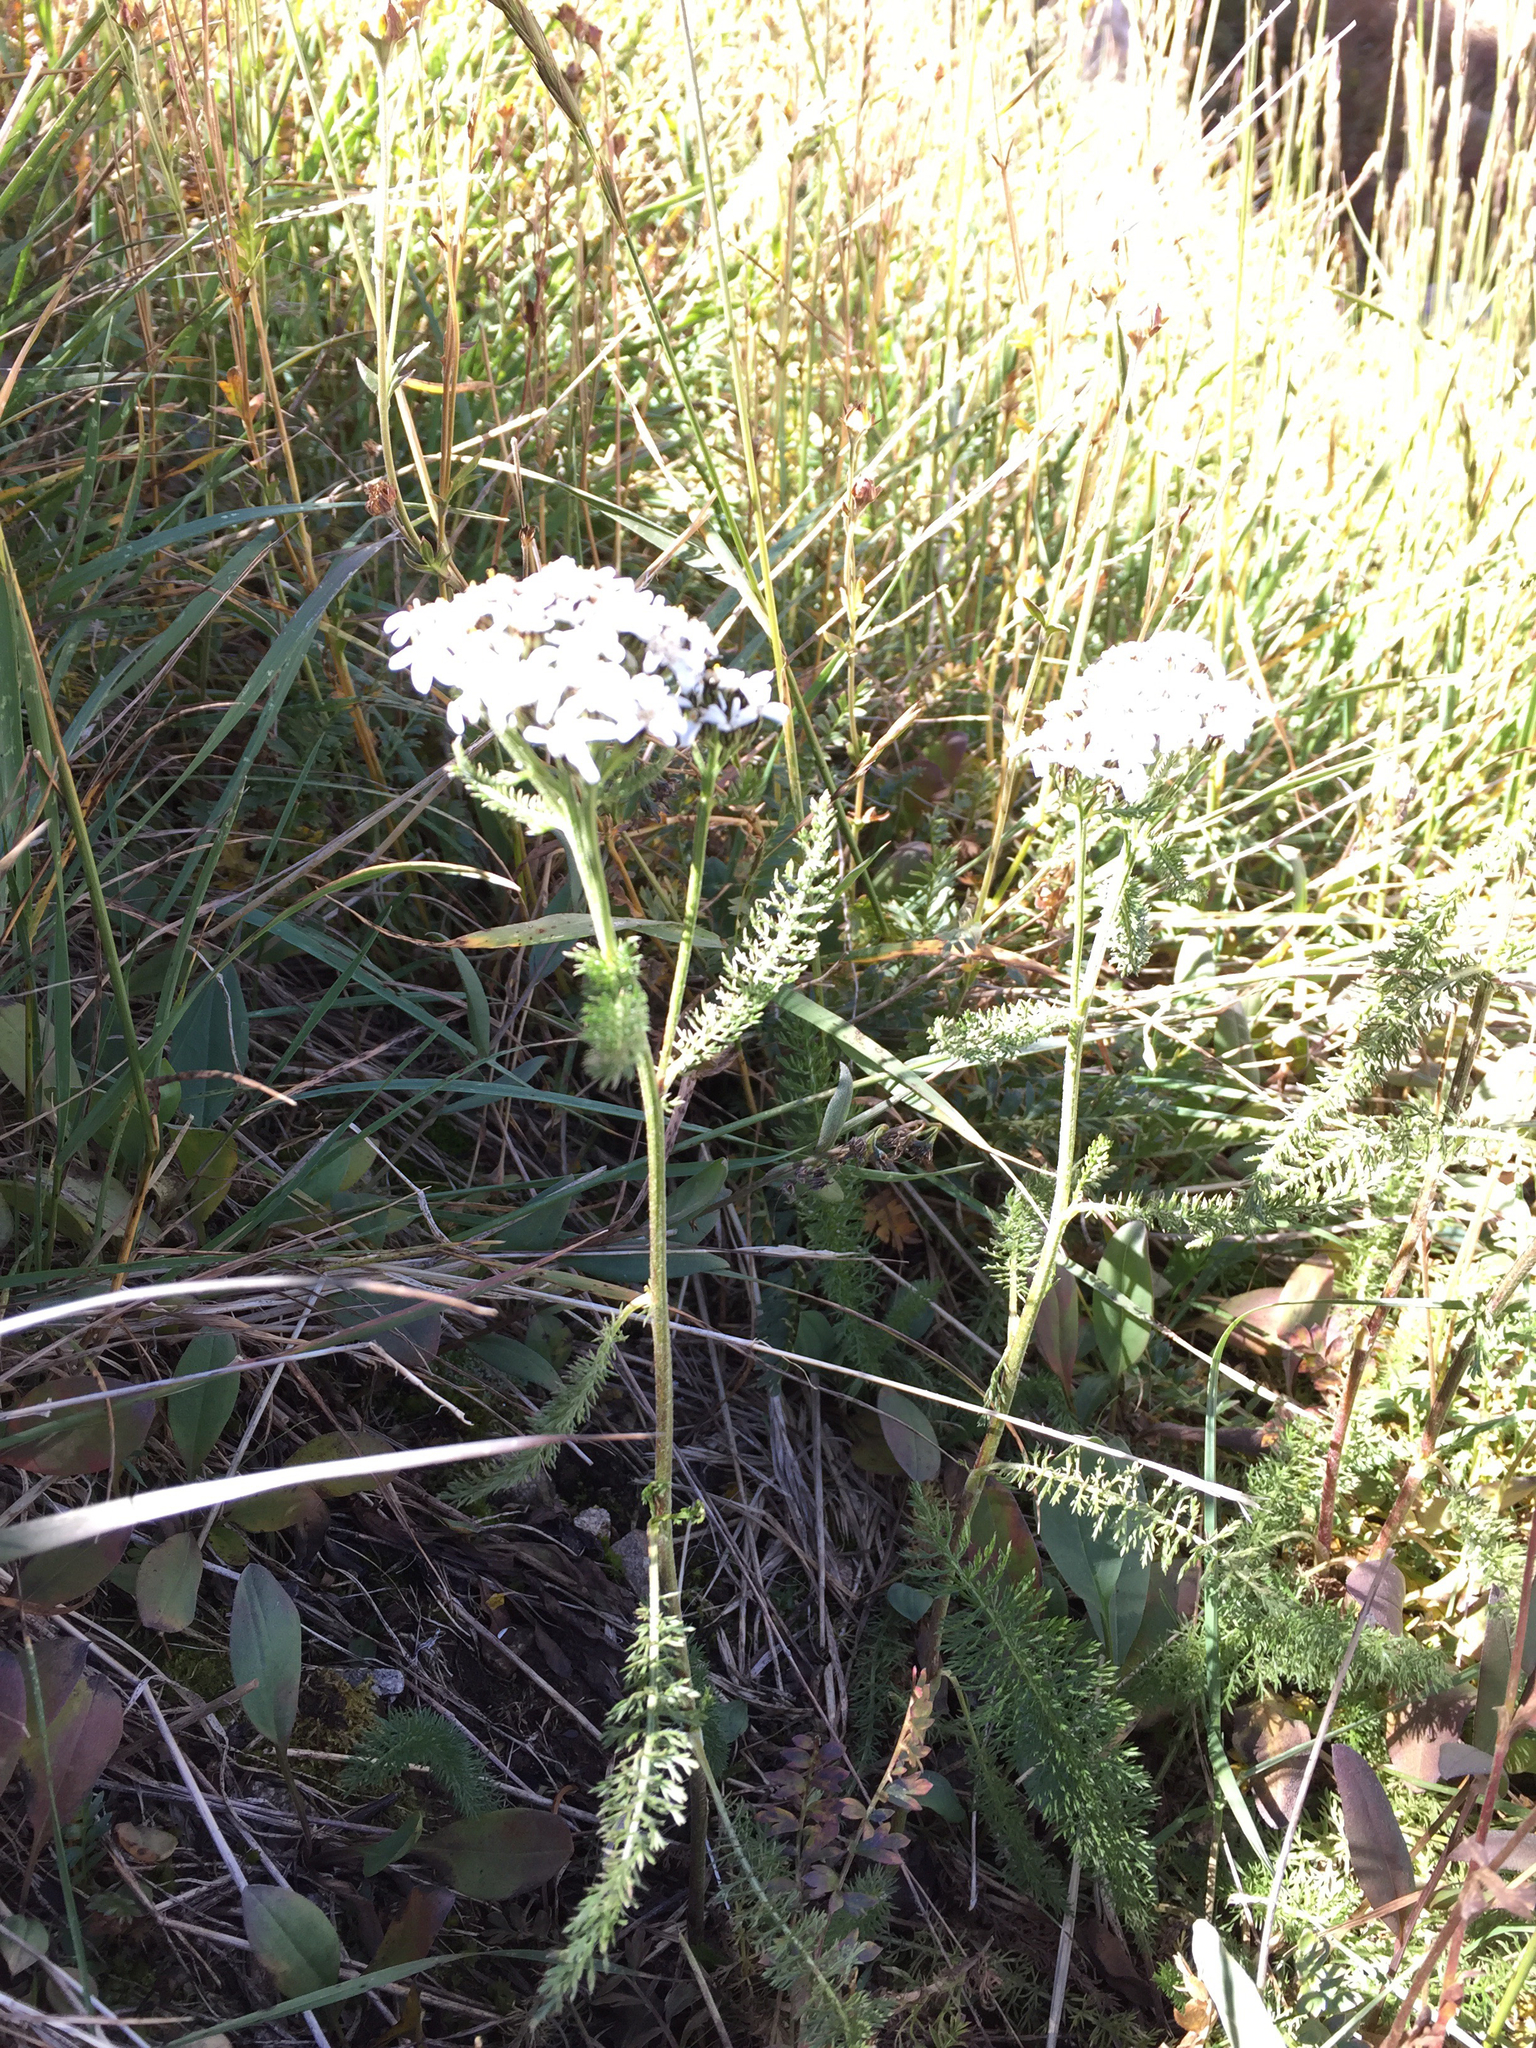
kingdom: Plantae
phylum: Tracheophyta
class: Magnoliopsida
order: Asterales
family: Asteraceae
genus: Achillea
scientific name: Achillea millefolium
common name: Yarrow
